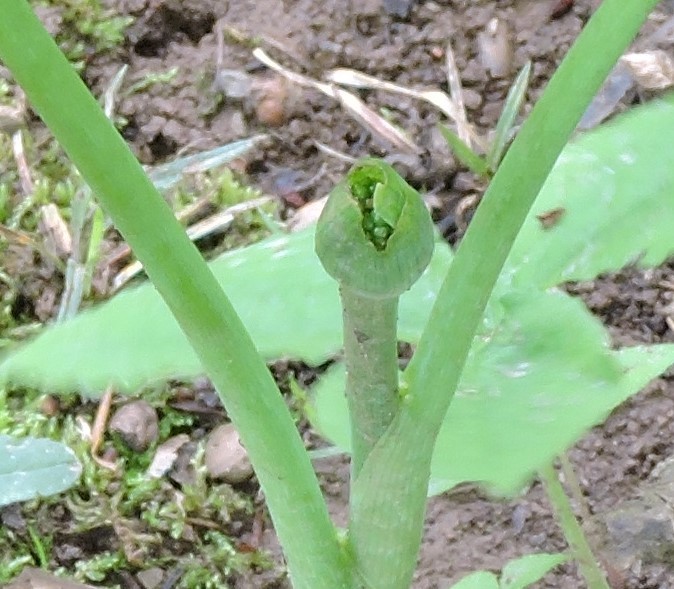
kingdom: Plantae
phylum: Tracheophyta
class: Liliopsida
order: Alismatales
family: Araceae
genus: Arisaema
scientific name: Arisaema triphyllum
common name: Jack-in-the-pulpit
